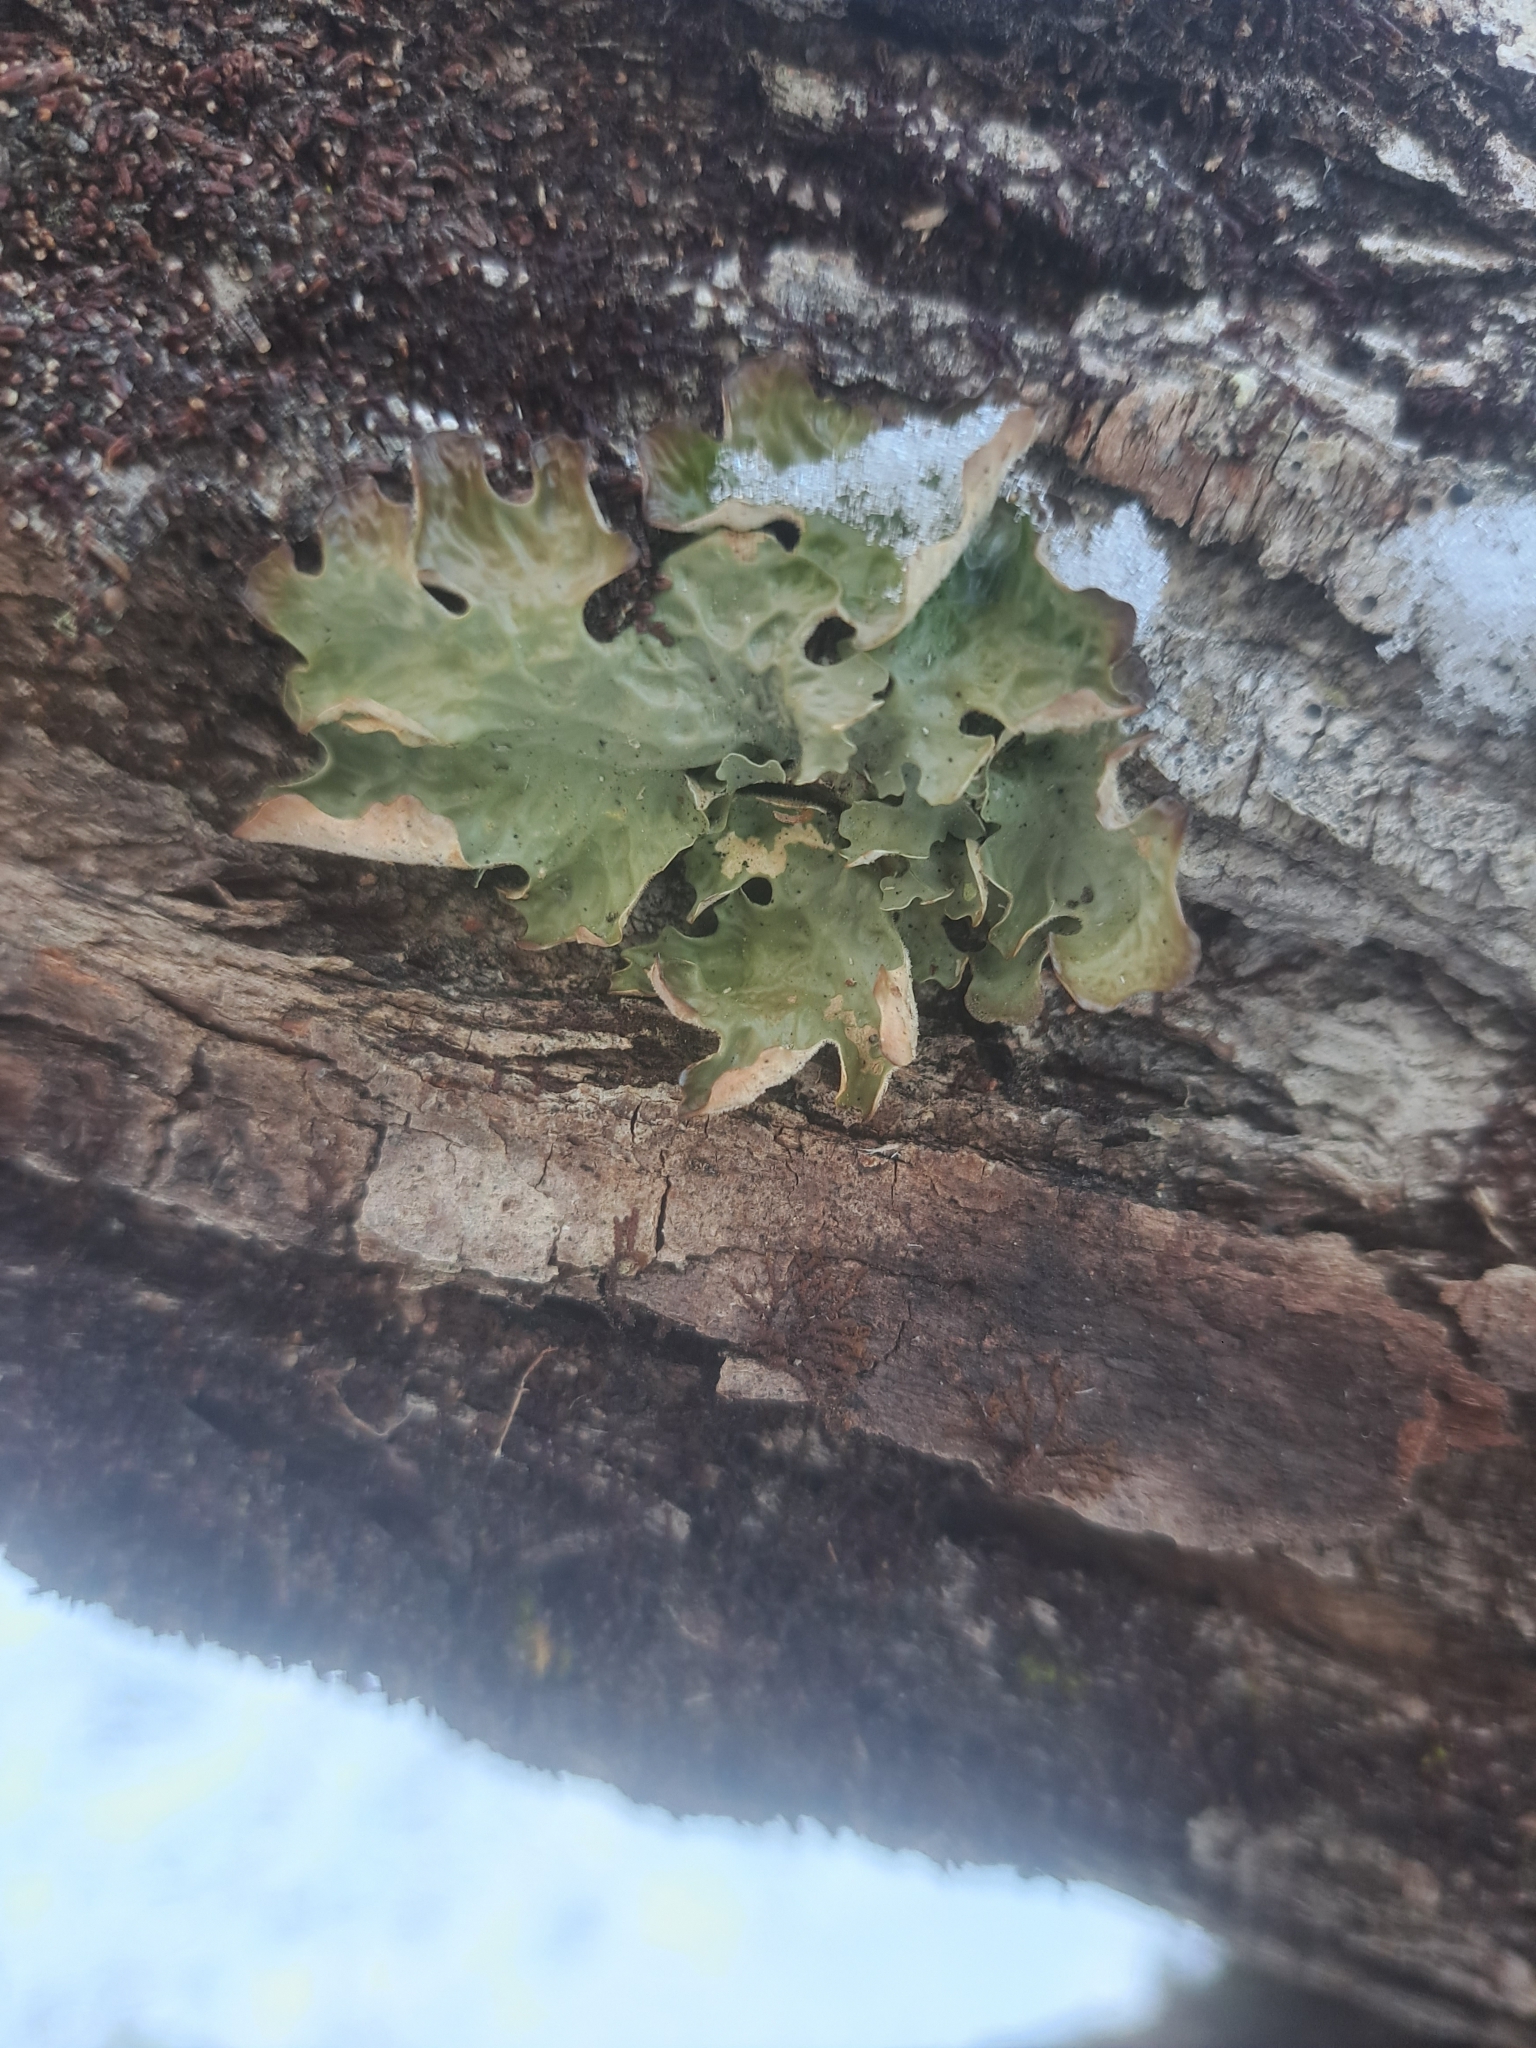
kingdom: Fungi
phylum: Ascomycota
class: Lecanoromycetes
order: Peltigerales
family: Lobariaceae
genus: Lobaria
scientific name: Lobaria pulmonaria
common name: Lungwort
